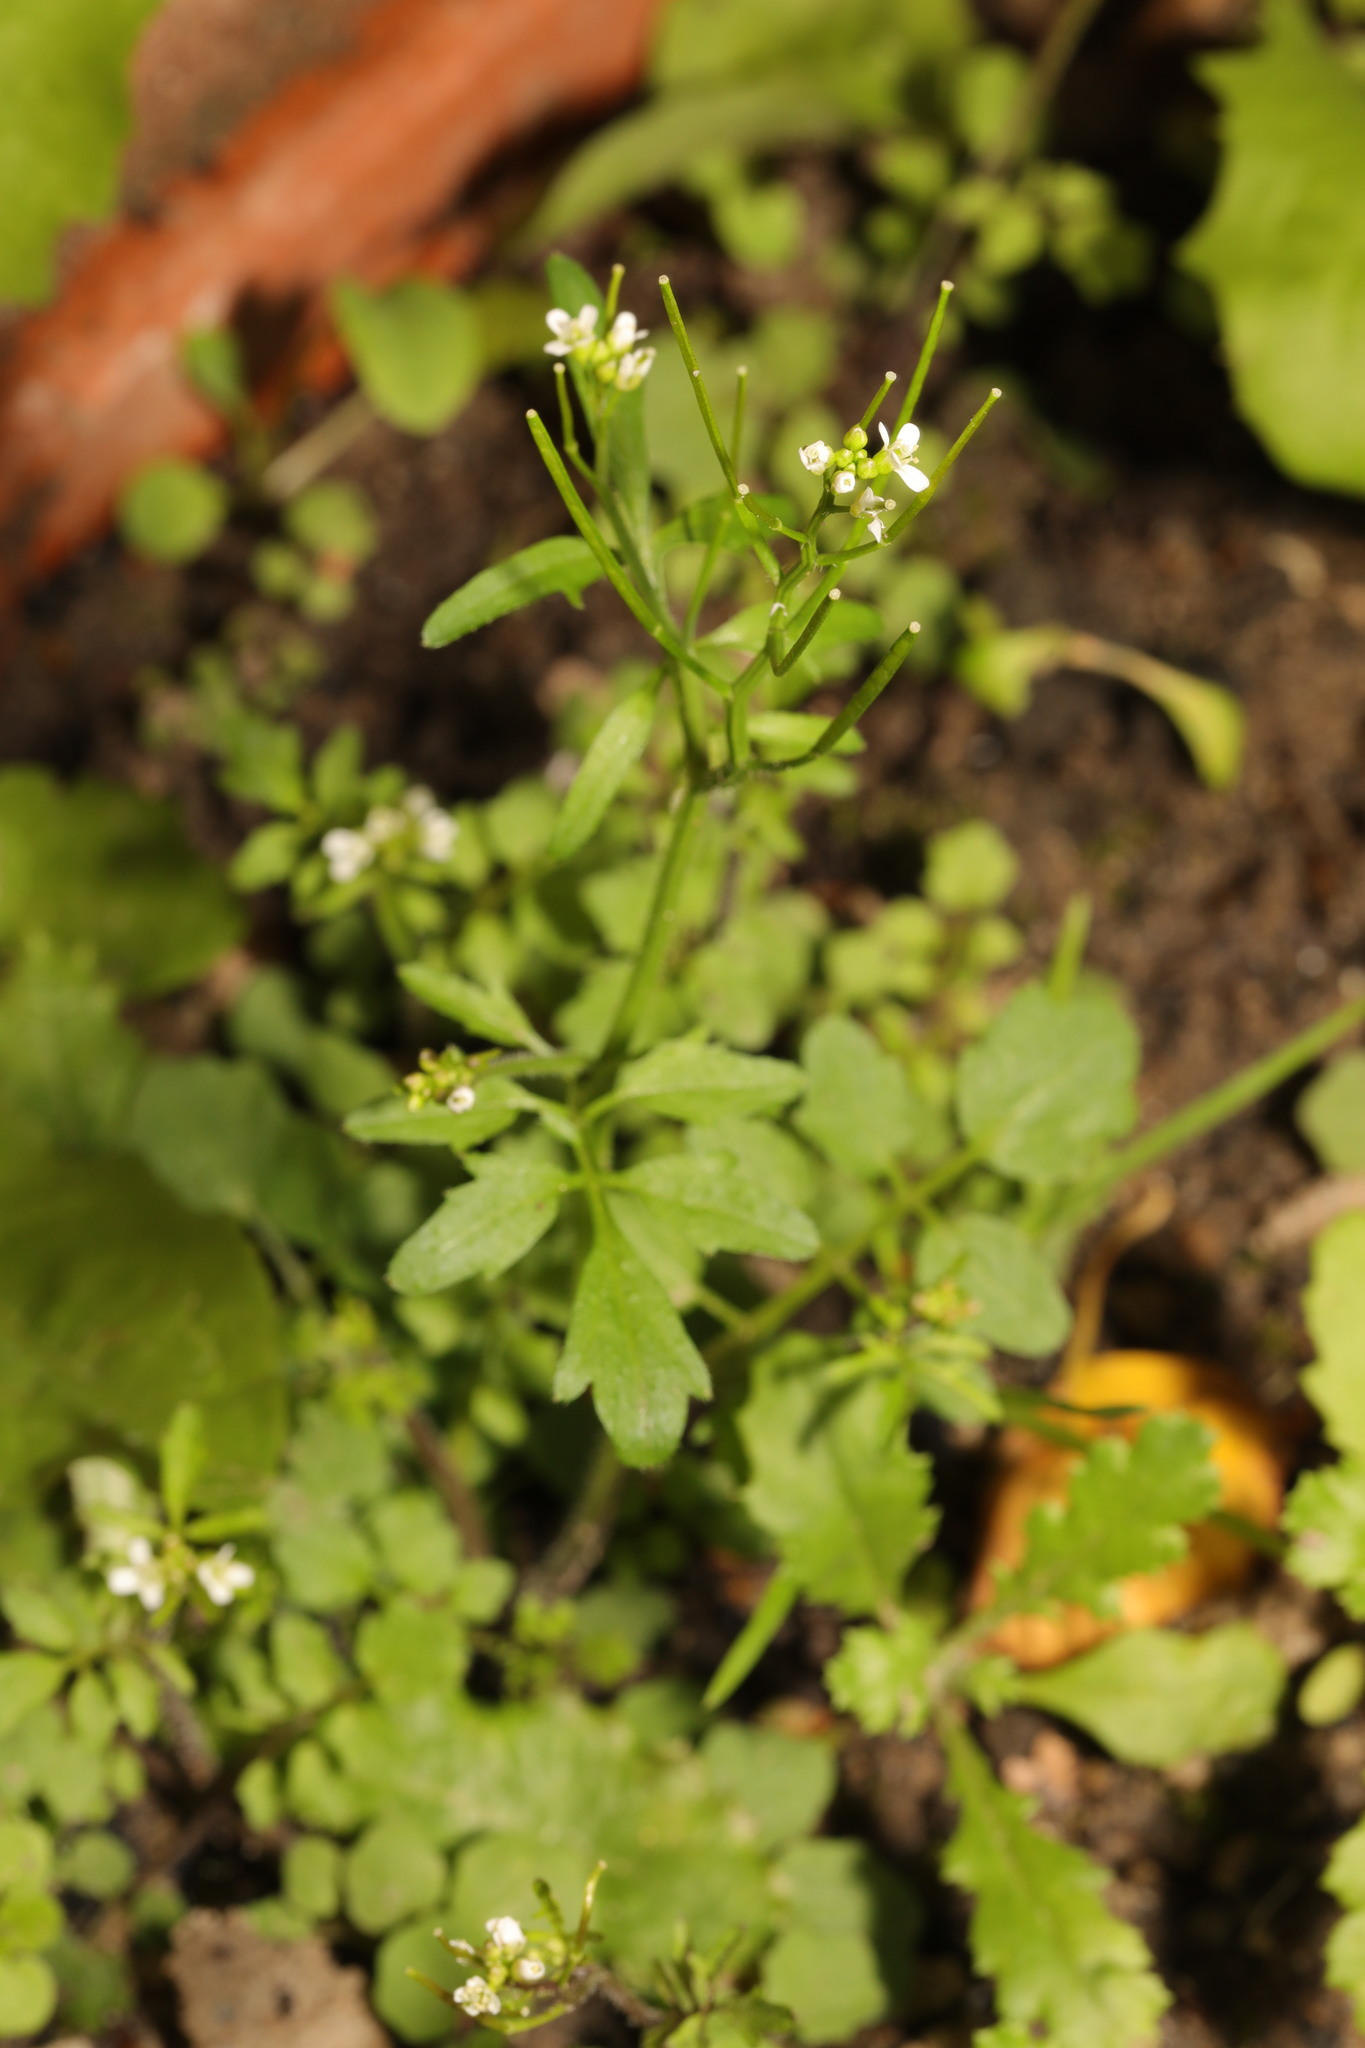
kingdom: Plantae
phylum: Tracheophyta
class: Magnoliopsida
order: Brassicales
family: Brassicaceae
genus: Cardamine
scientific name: Cardamine flexuosa
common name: Woodland bittercress
